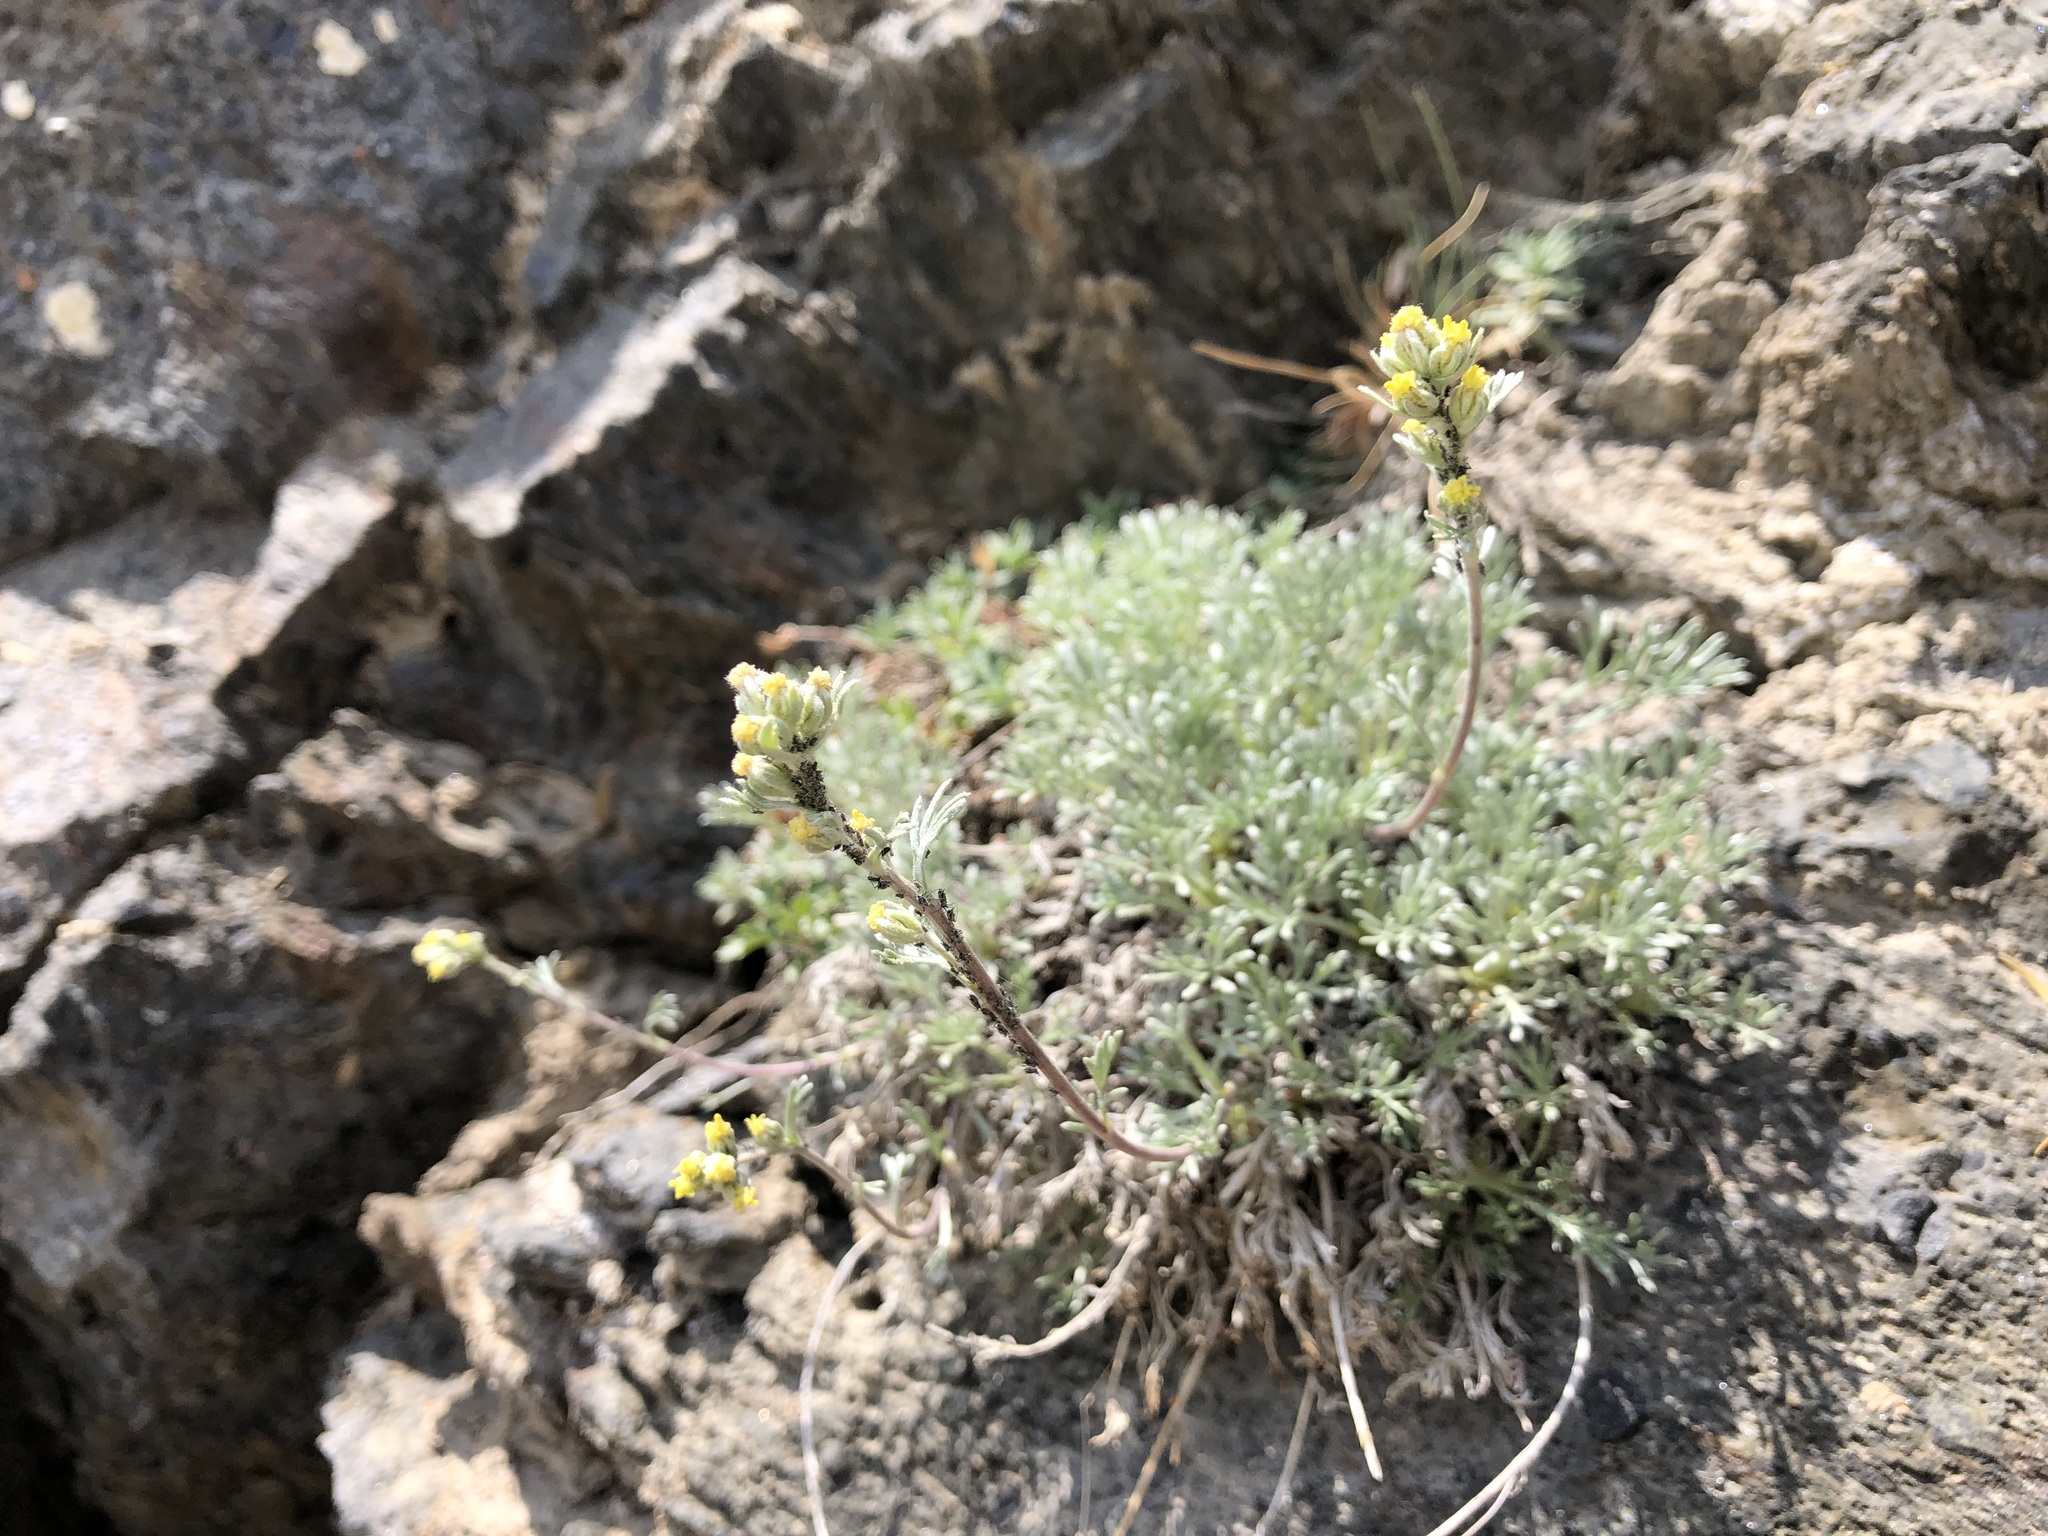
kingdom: Plantae
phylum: Tracheophyta
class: Magnoliopsida
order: Asterales
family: Asteraceae
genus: Artemisia
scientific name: Artemisia umbelliformis
